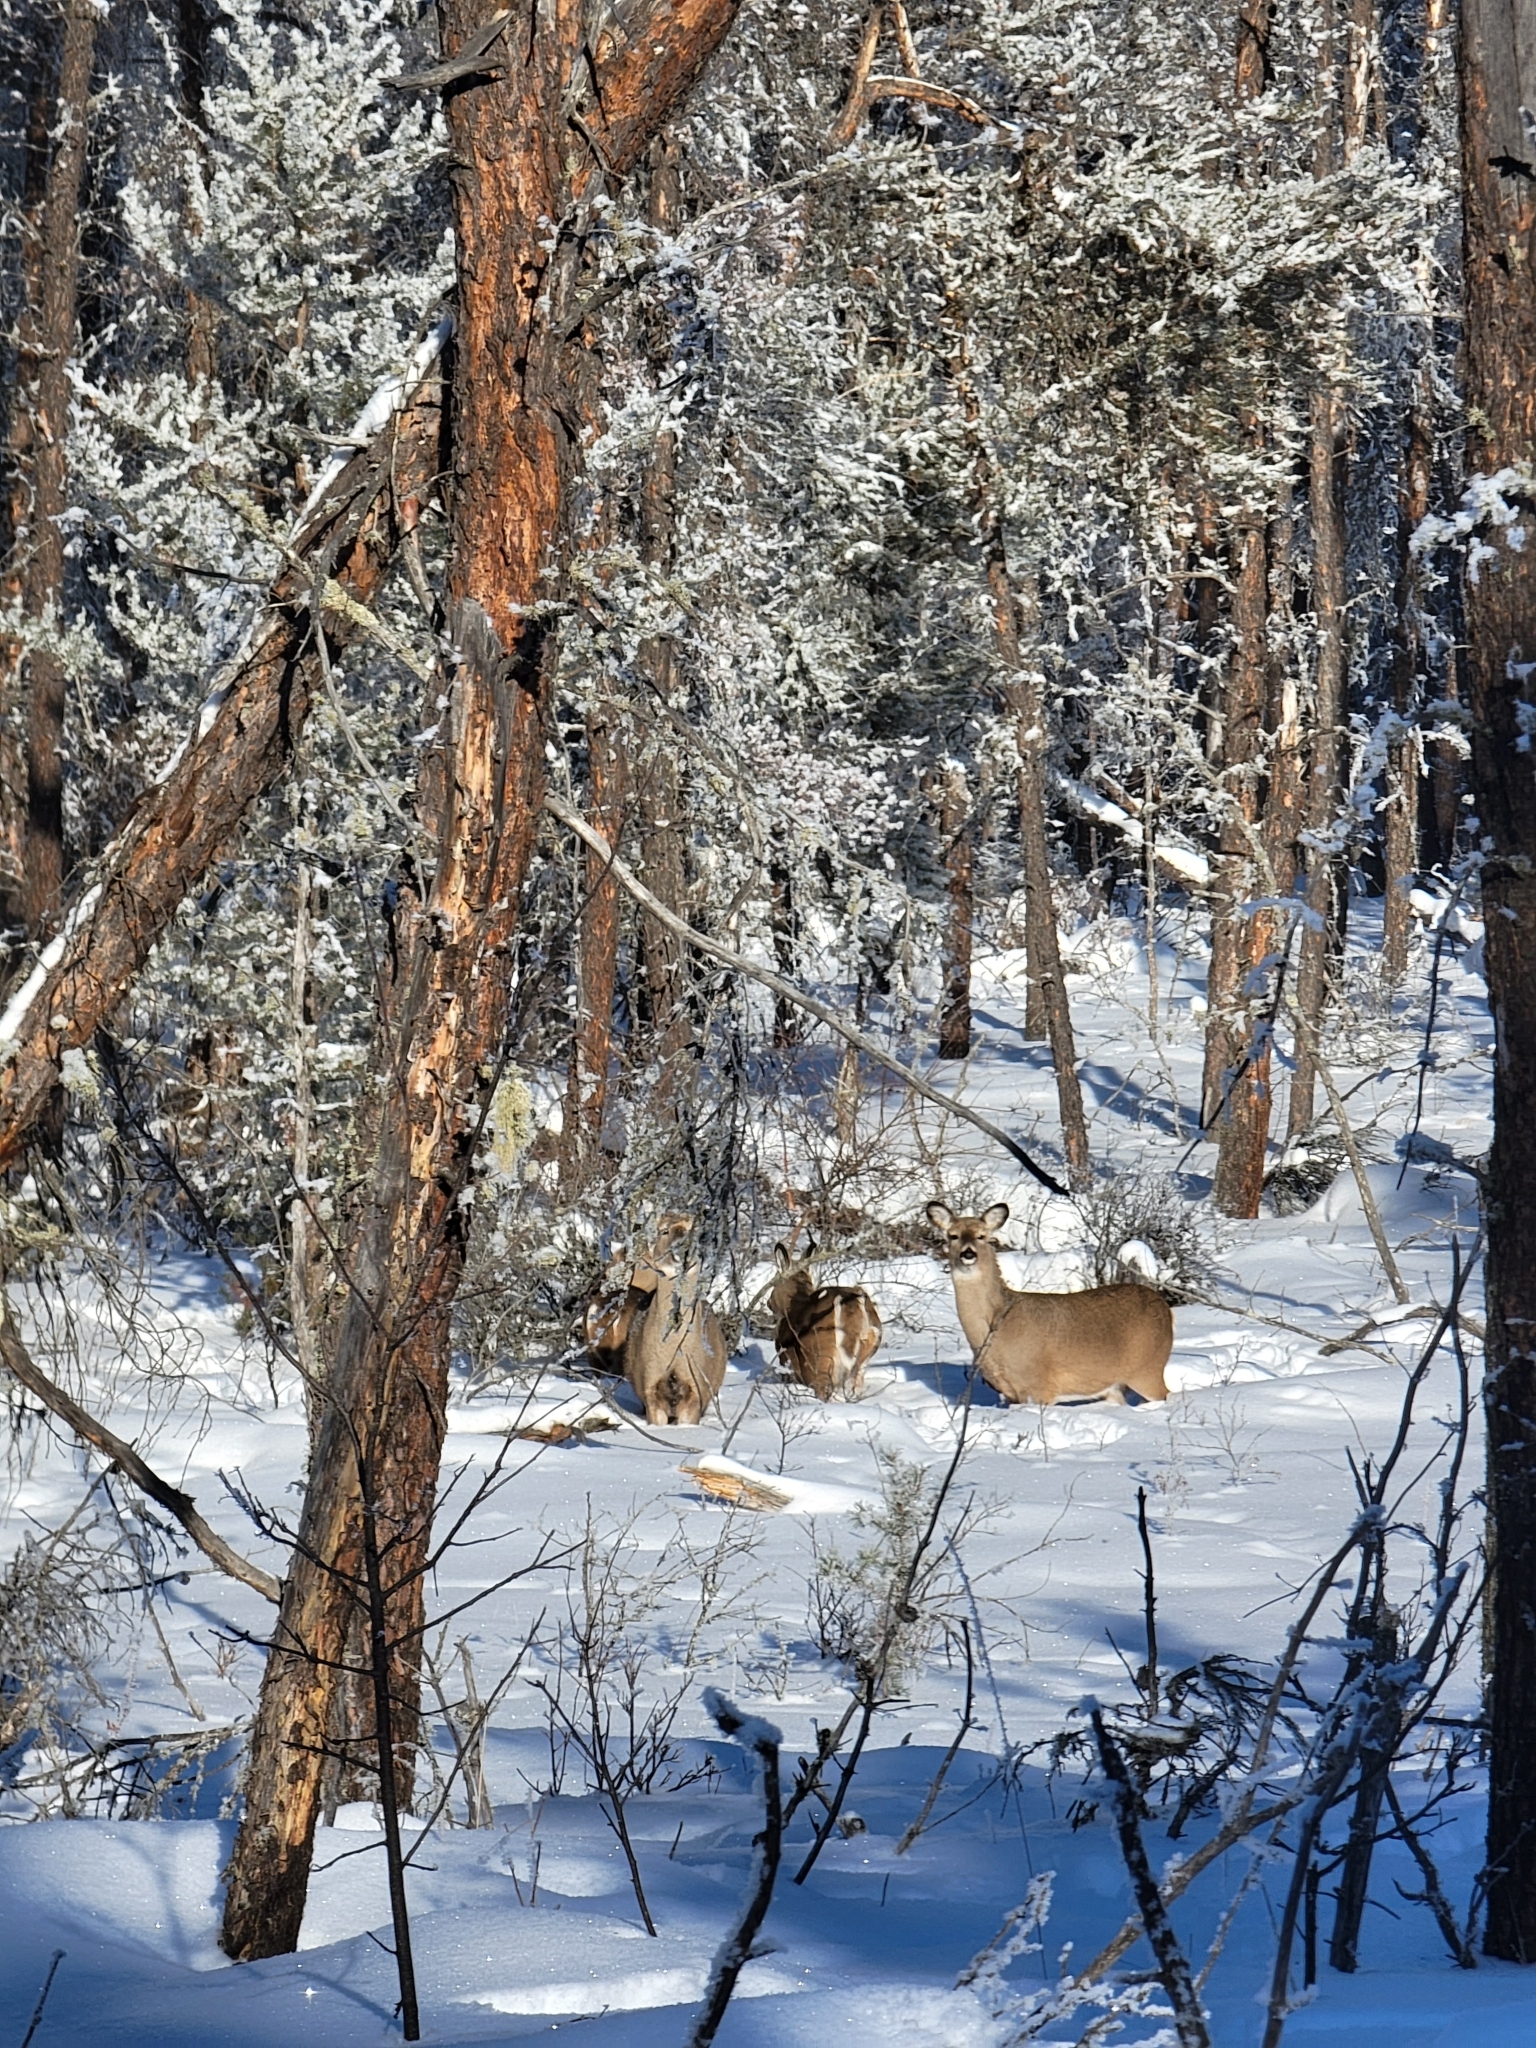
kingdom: Animalia
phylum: Chordata
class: Mammalia
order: Artiodactyla
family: Cervidae
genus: Odocoileus
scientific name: Odocoileus virginianus
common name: White-tailed deer
